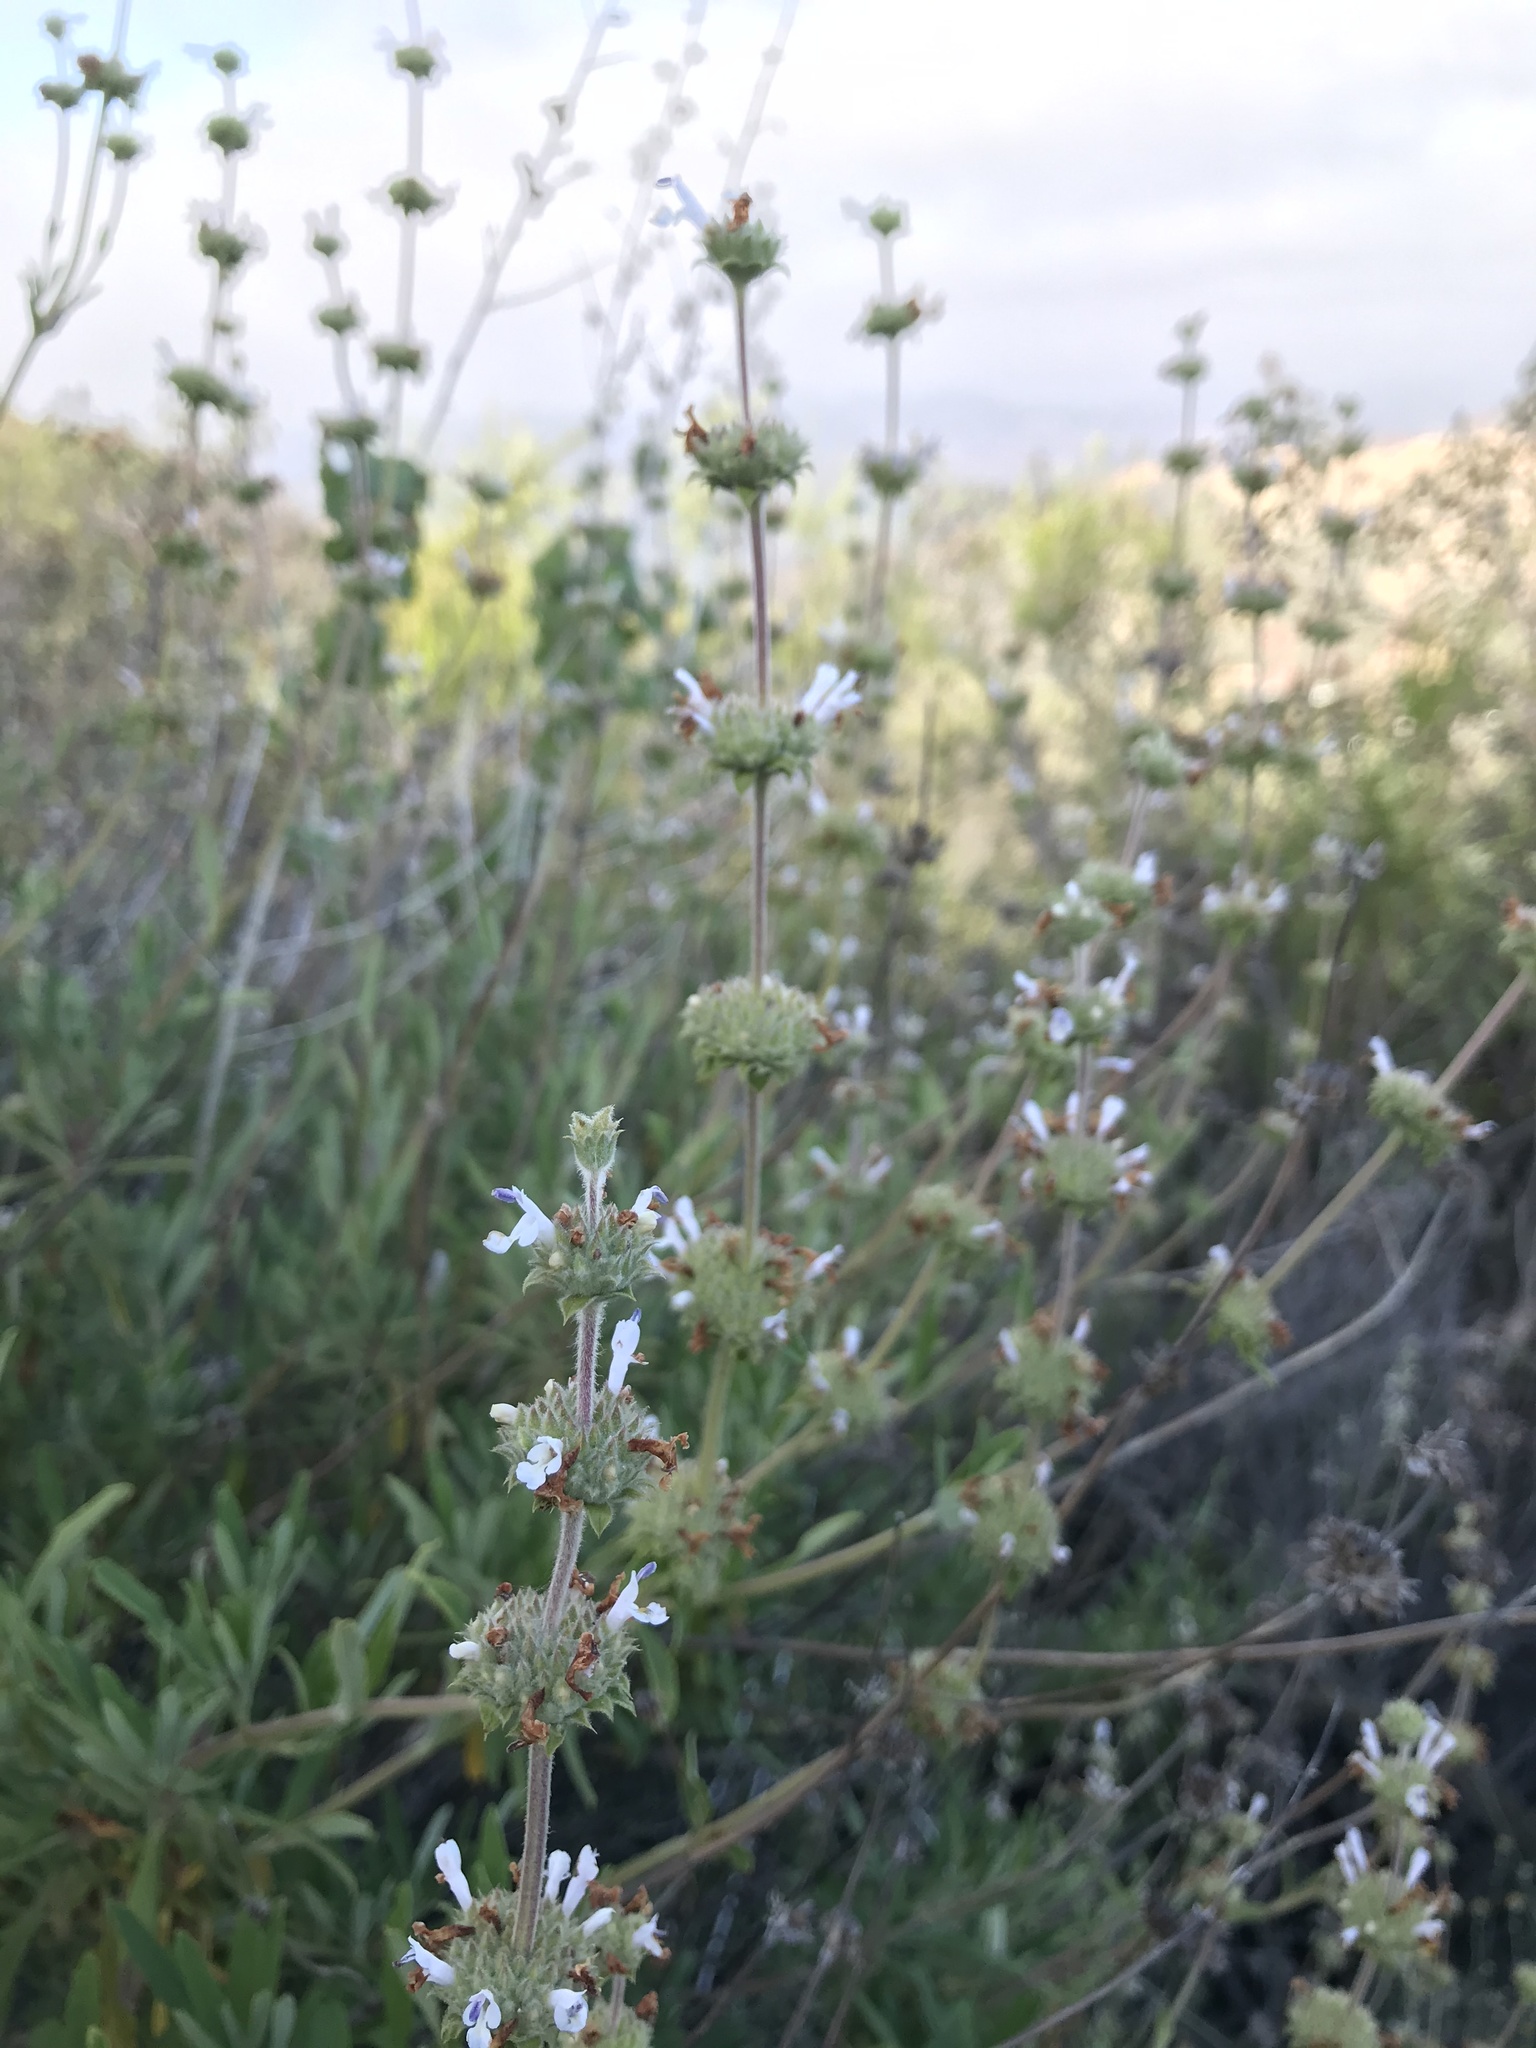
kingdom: Plantae
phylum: Tracheophyta
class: Magnoliopsida
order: Lamiales
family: Lamiaceae
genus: Salvia
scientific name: Salvia mellifera
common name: Black sage
